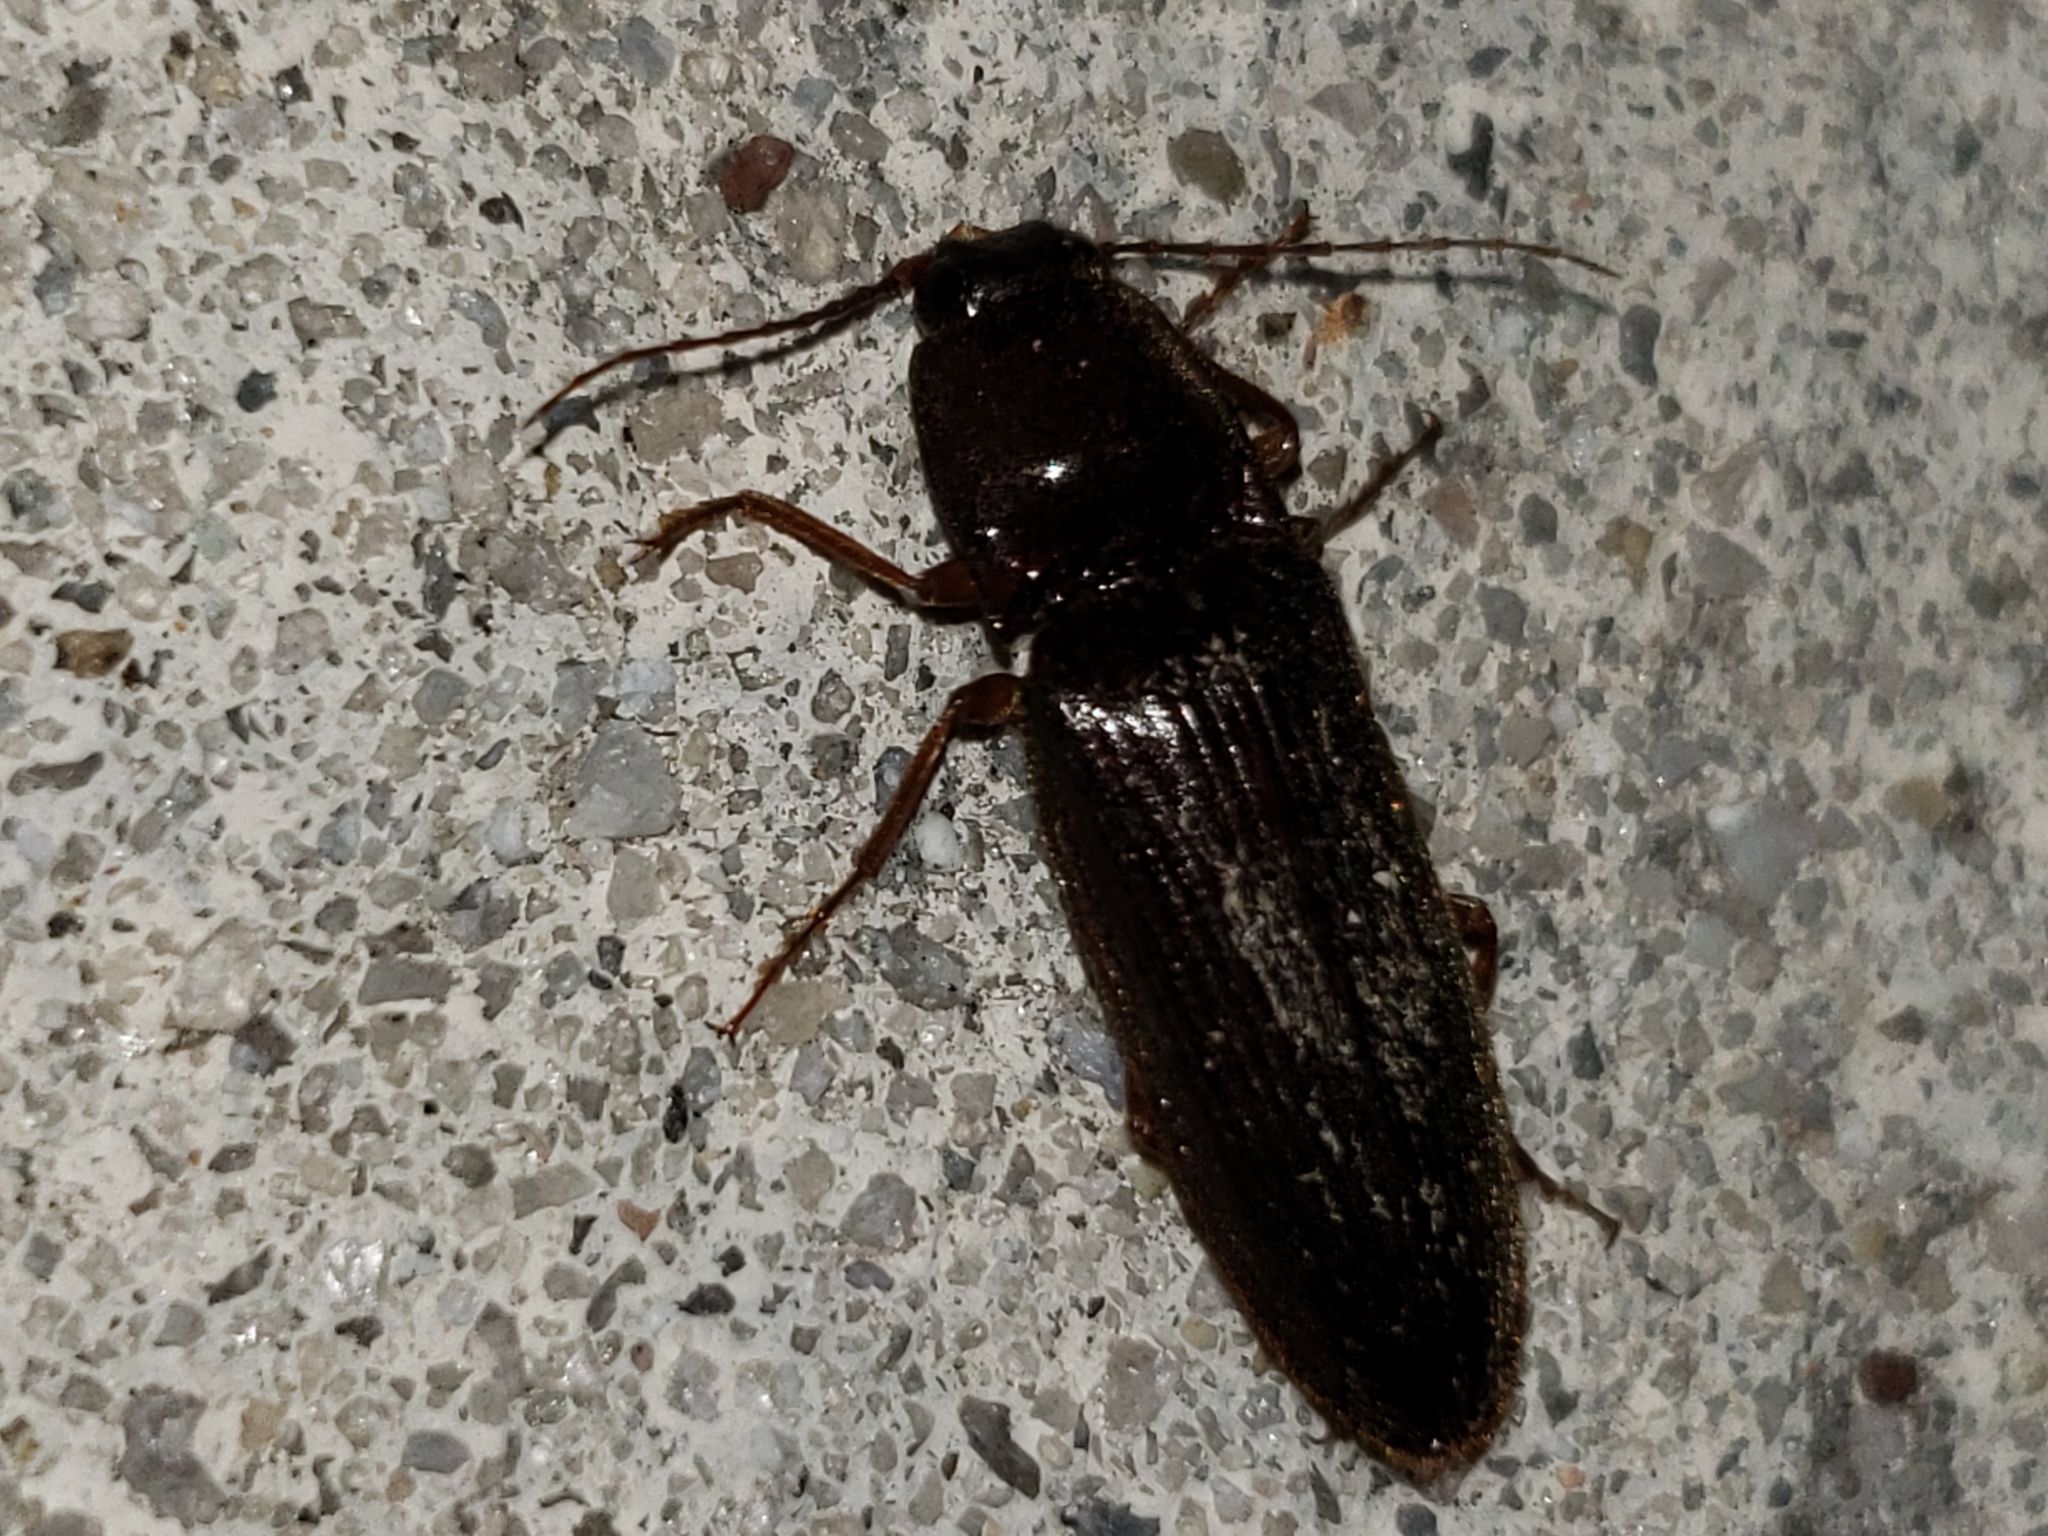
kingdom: Animalia
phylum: Arthropoda
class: Insecta
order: Coleoptera
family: Elateridae
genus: Hemicrepidius
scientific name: Hemicrepidius
